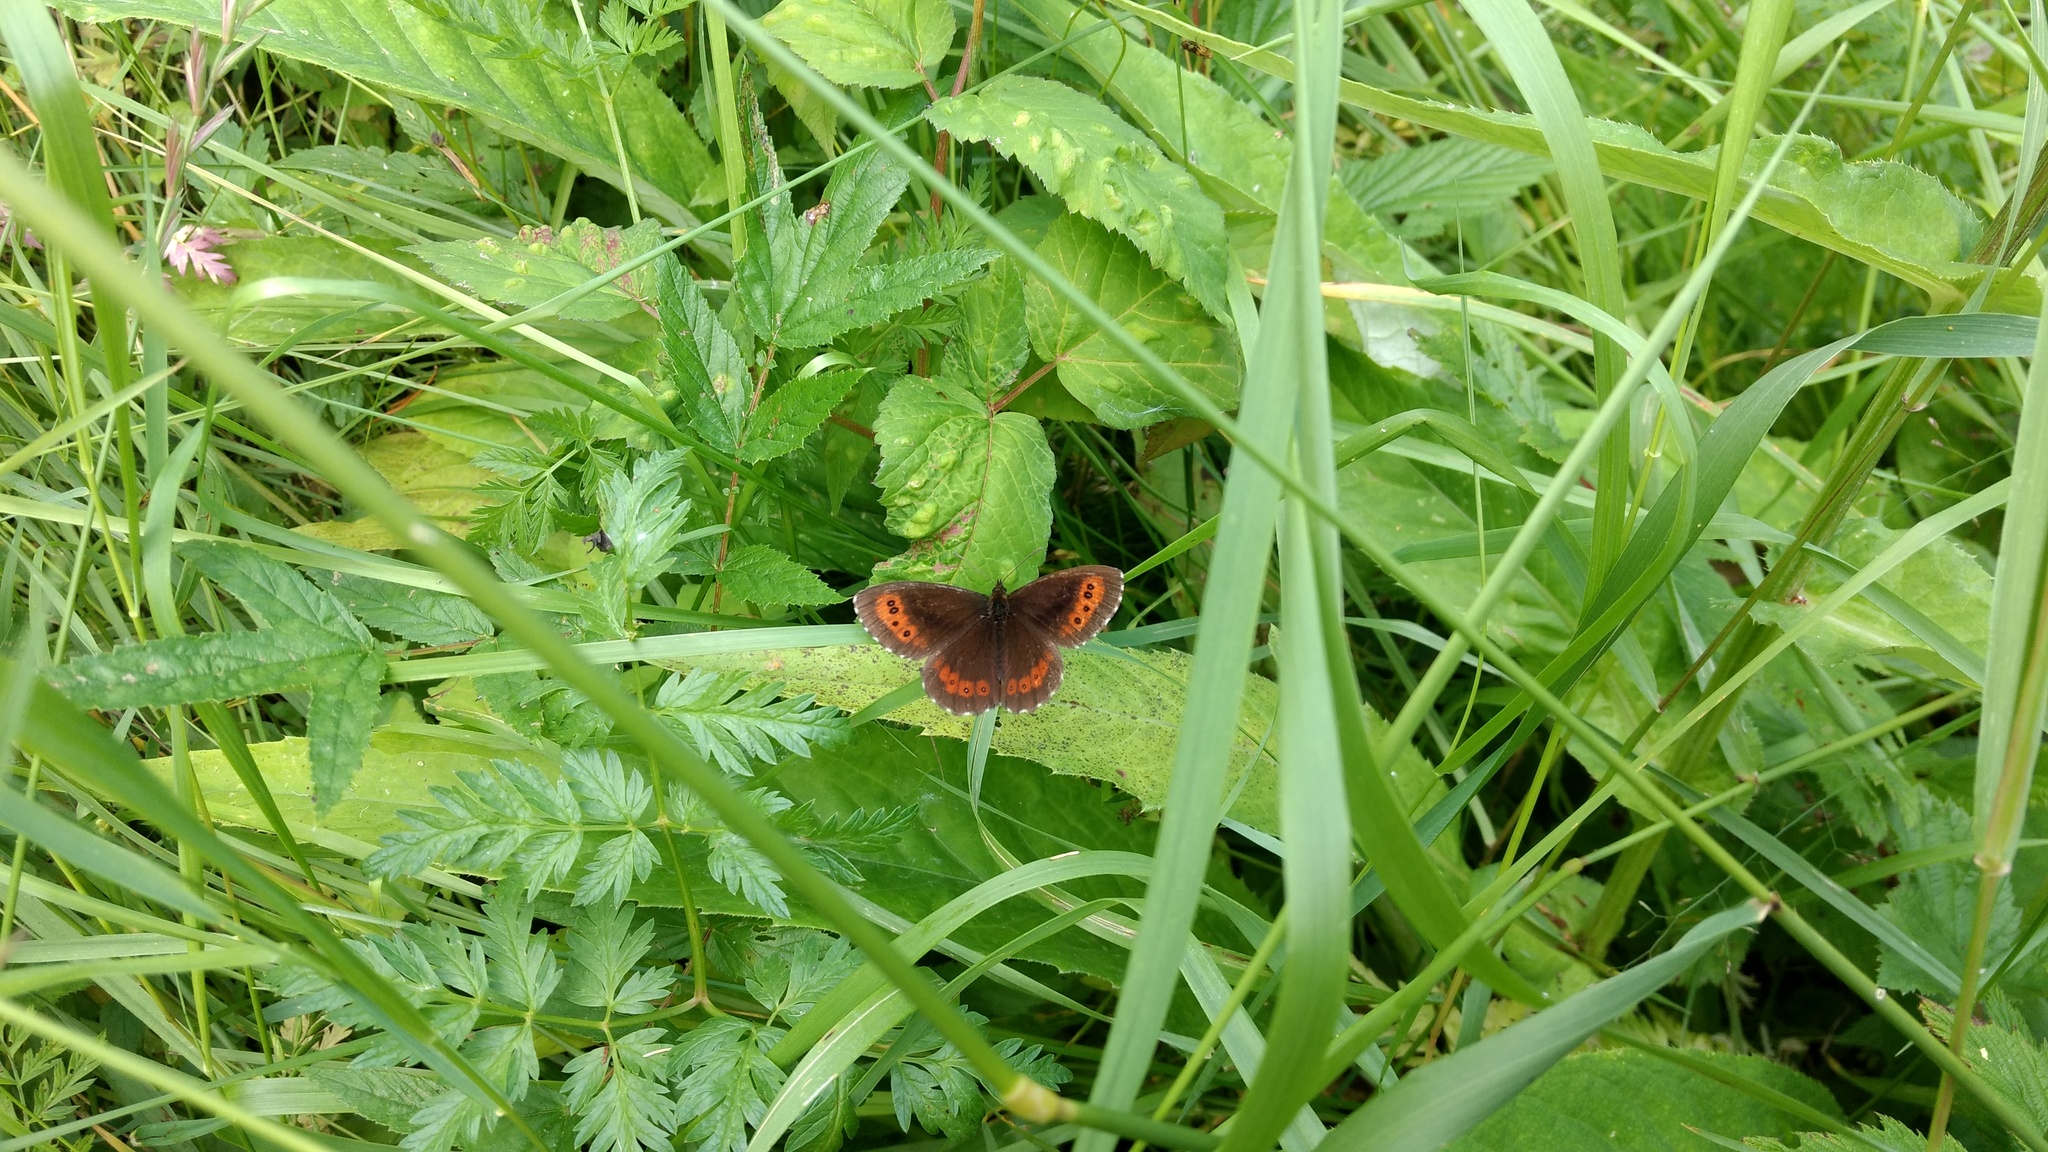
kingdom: Animalia
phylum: Arthropoda
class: Insecta
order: Lepidoptera
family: Nymphalidae
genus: Erebia
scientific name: Erebia ligea
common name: Arran brown
